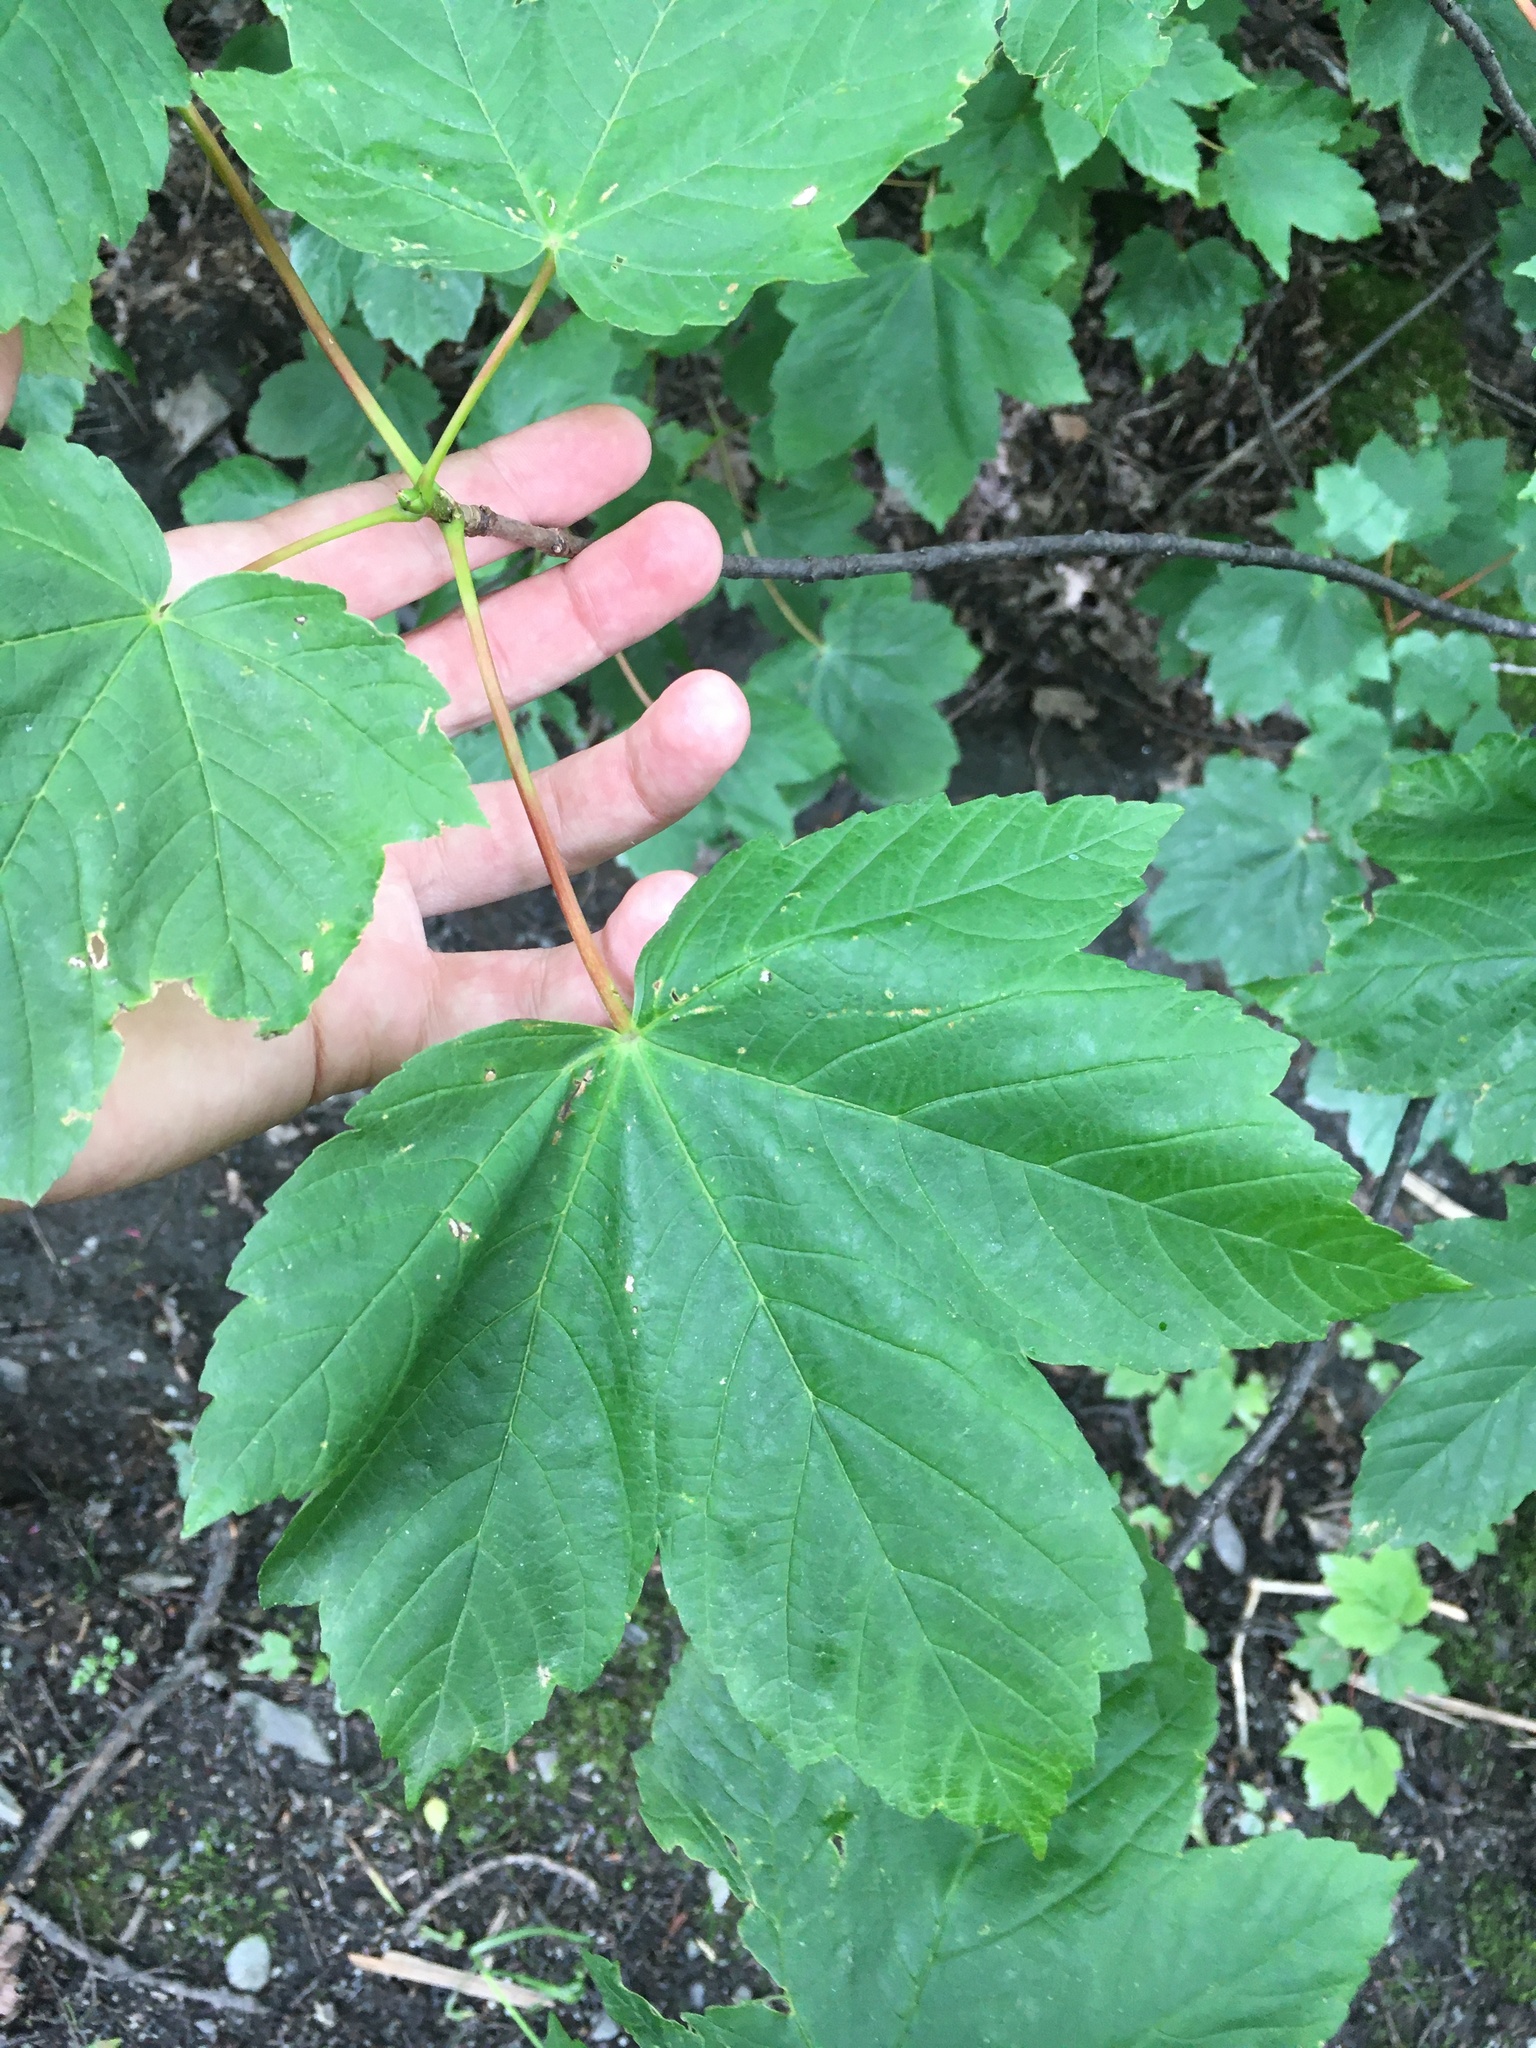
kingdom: Plantae
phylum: Tracheophyta
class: Magnoliopsida
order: Sapindales
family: Sapindaceae
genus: Acer
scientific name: Acer pseudoplatanus
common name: Sycamore
